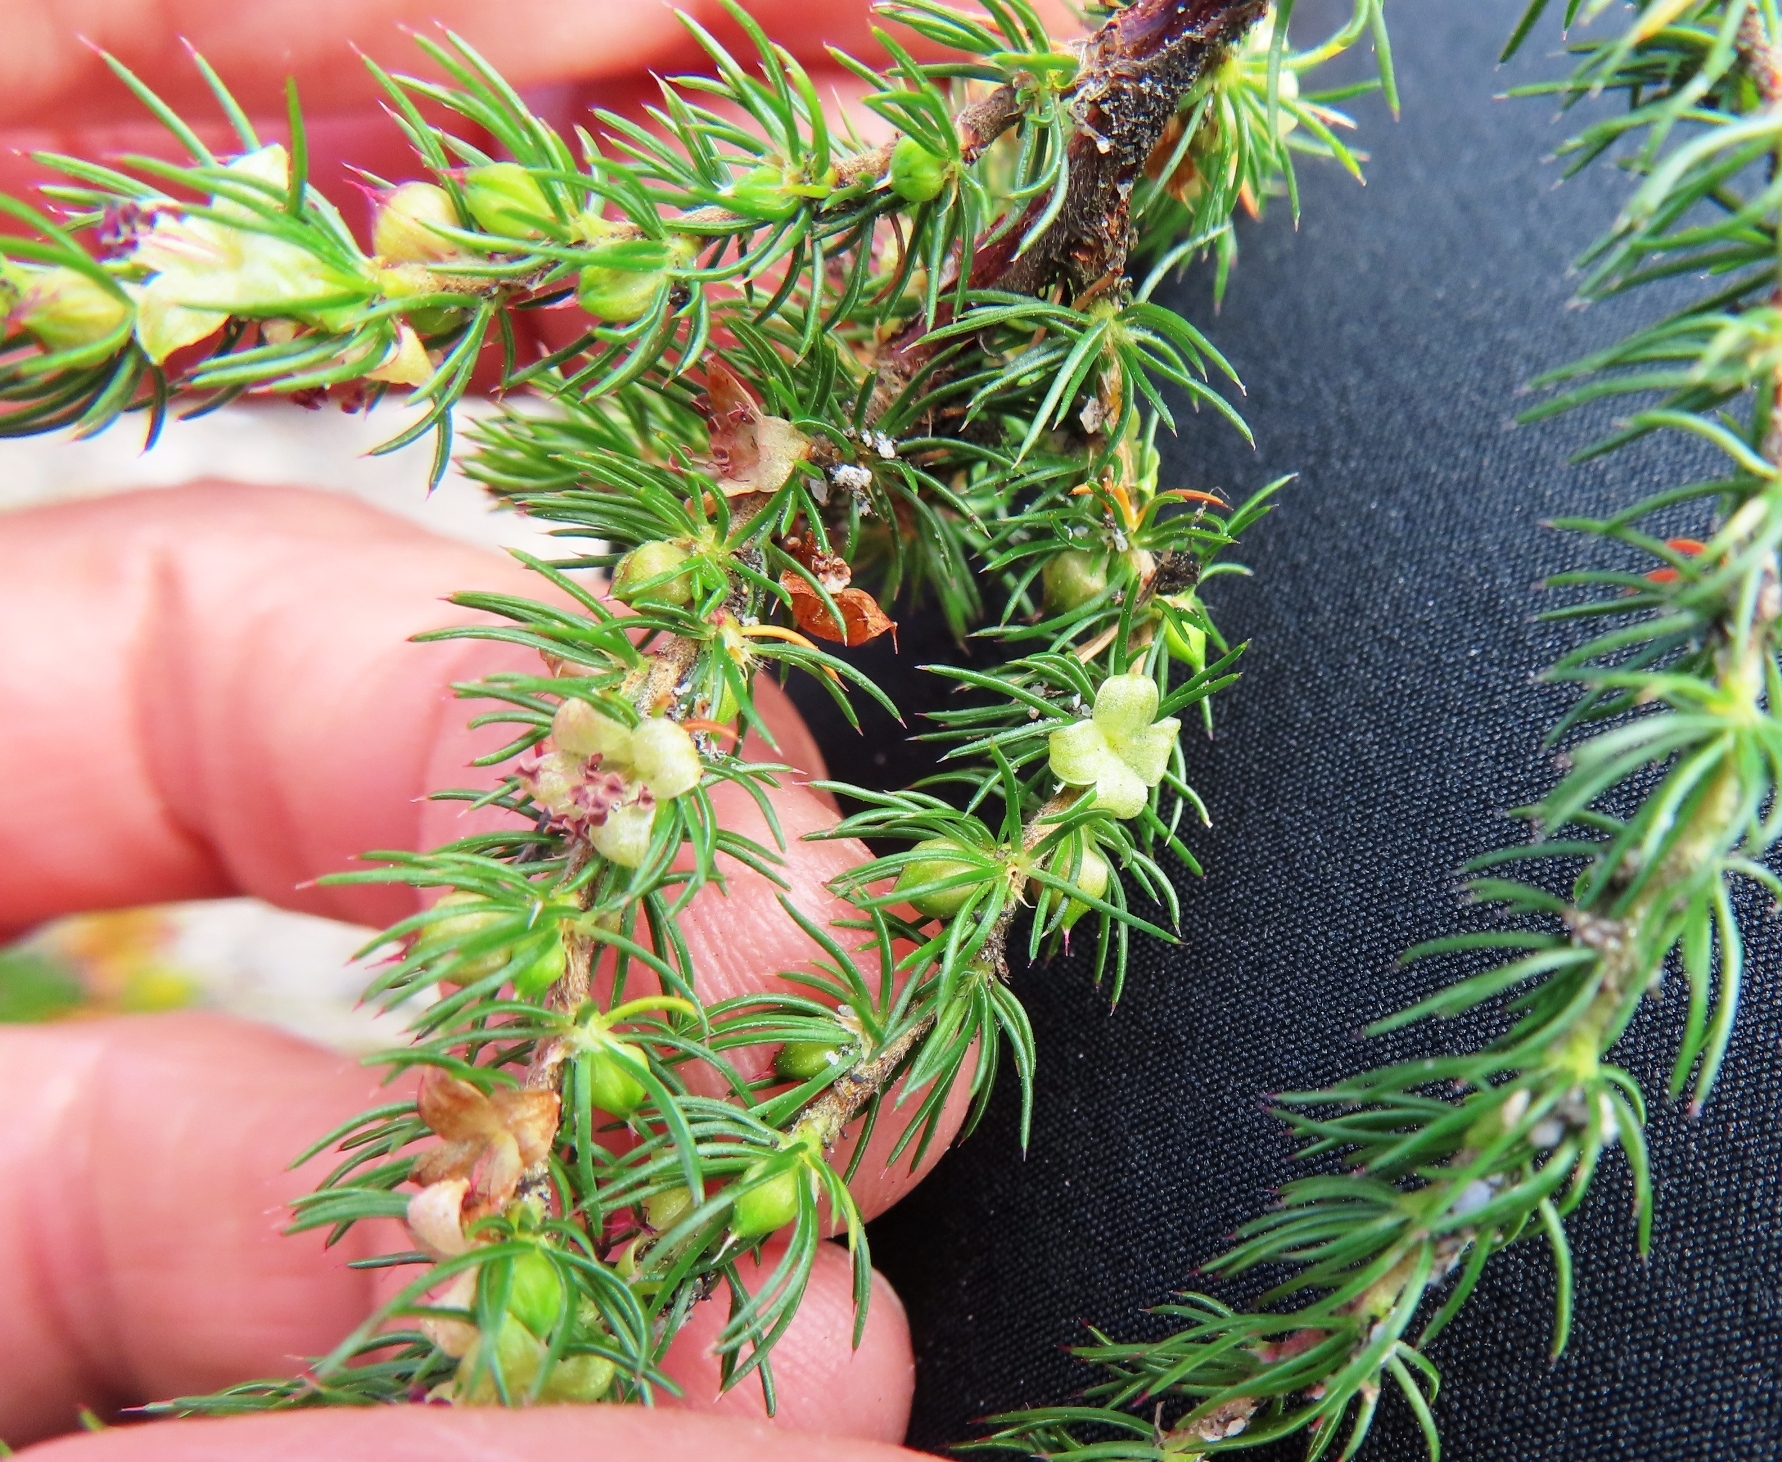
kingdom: Plantae
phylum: Tracheophyta
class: Magnoliopsida
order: Rosales
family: Rosaceae
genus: Cliffortia
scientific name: Cliffortia subsetacea
